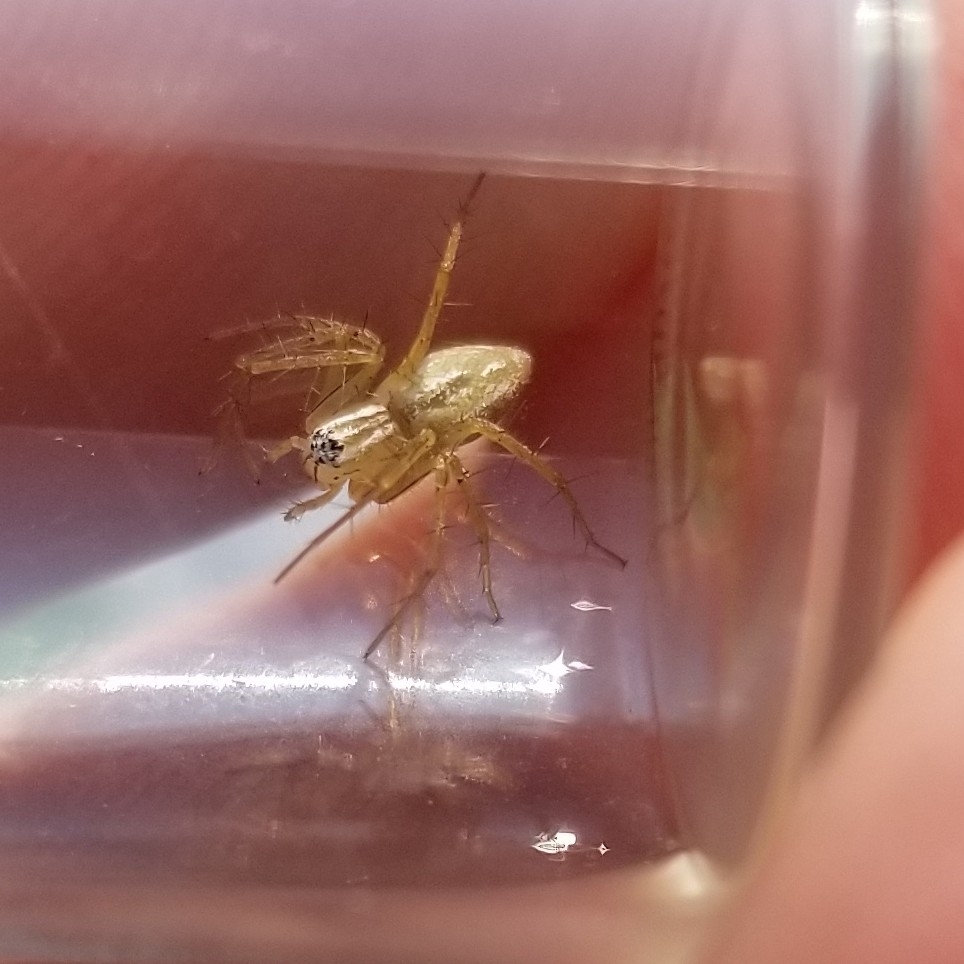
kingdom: Animalia
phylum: Arthropoda
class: Arachnida
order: Araneae
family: Oxyopidae
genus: Oxyopes
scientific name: Oxyopes salticus
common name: Lynx spiders
